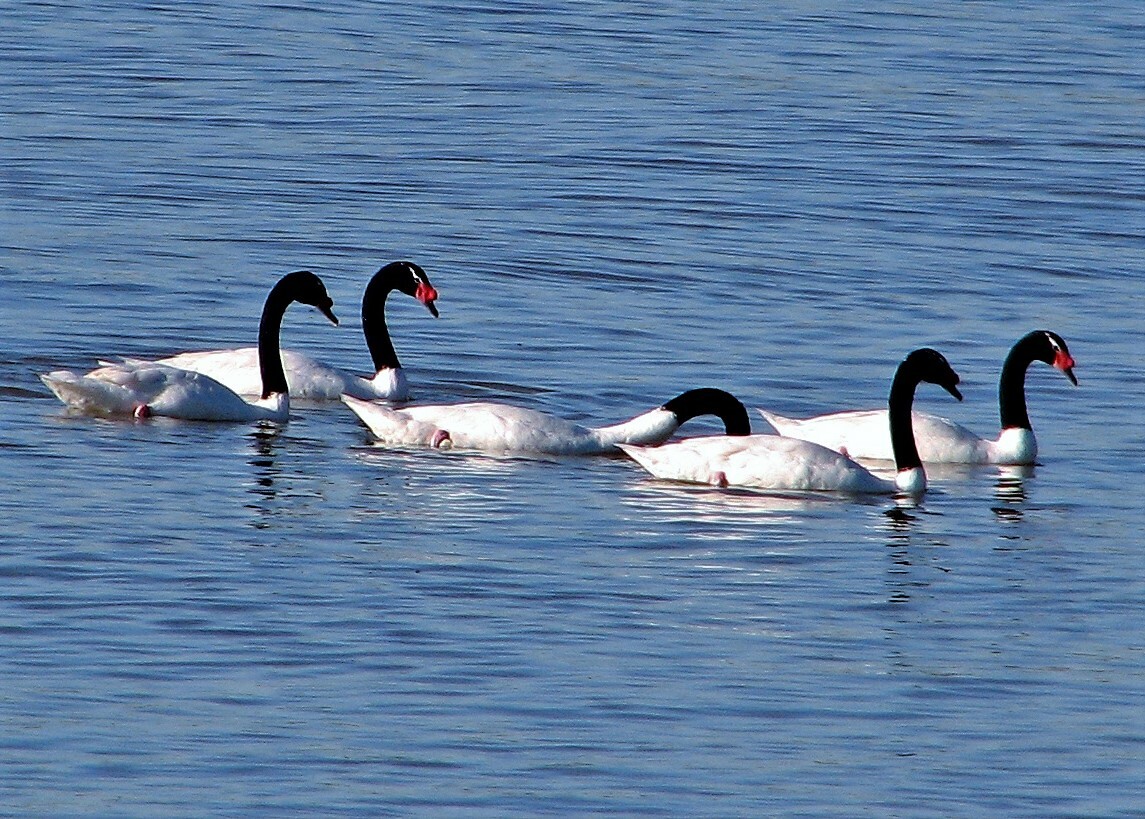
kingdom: Animalia
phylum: Chordata
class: Aves
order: Anseriformes
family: Anatidae
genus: Cygnus
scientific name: Cygnus melancoryphus
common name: Black-necked swan
